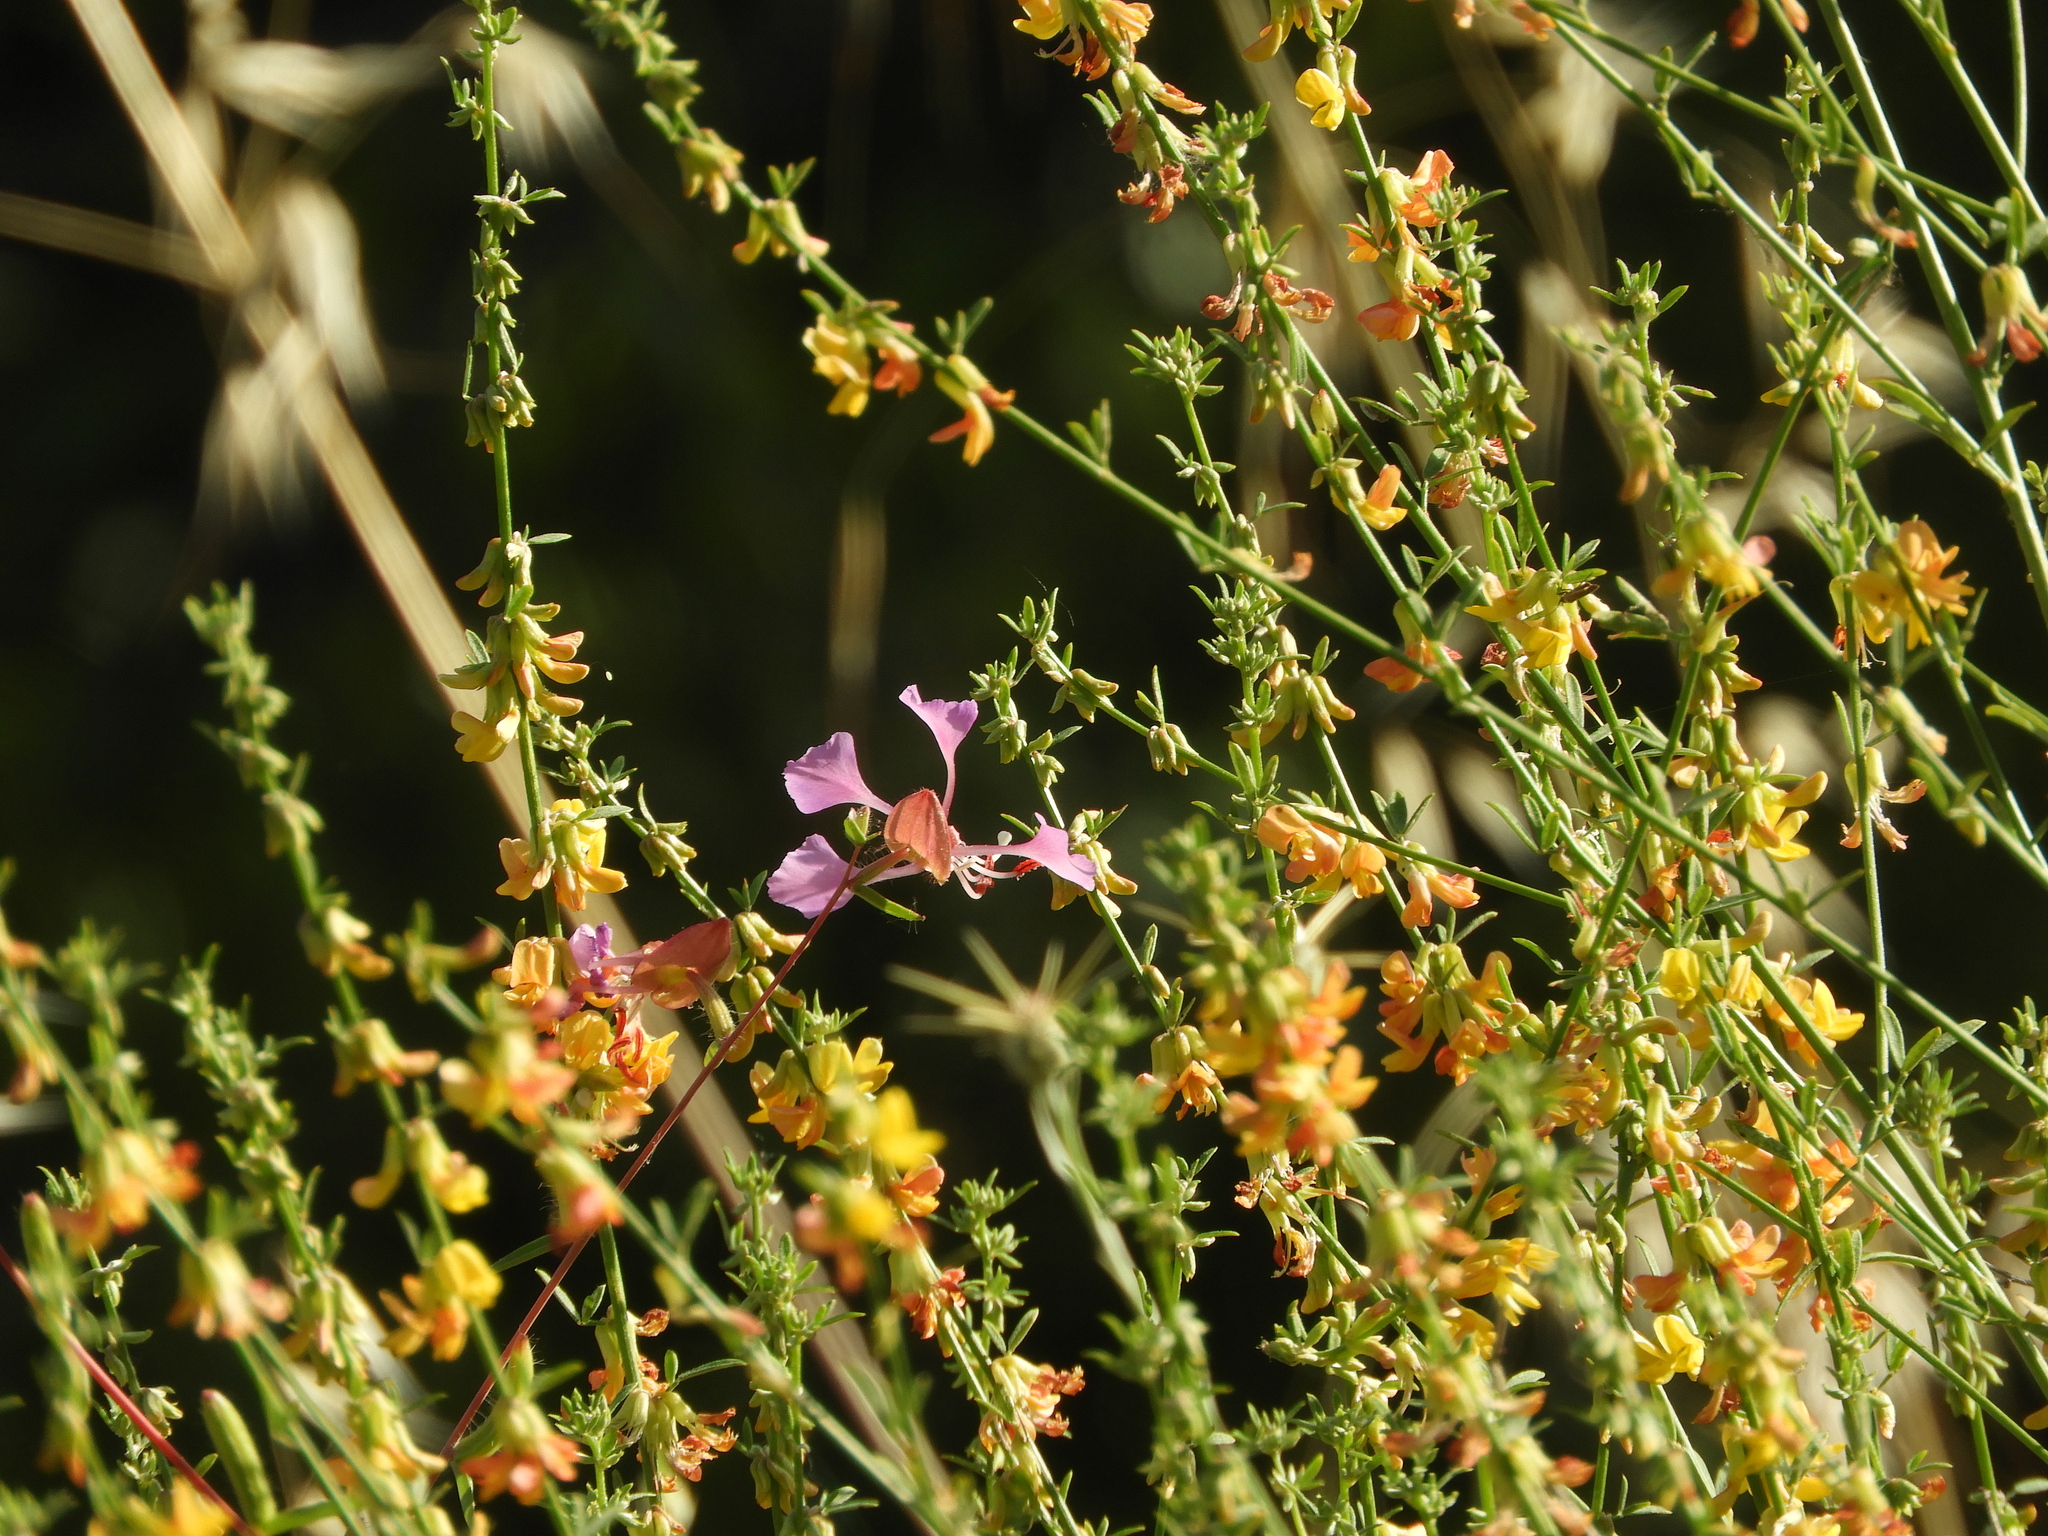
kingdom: Plantae
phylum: Tracheophyta
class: Magnoliopsida
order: Fabales
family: Fabaceae
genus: Acmispon
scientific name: Acmispon glaber
